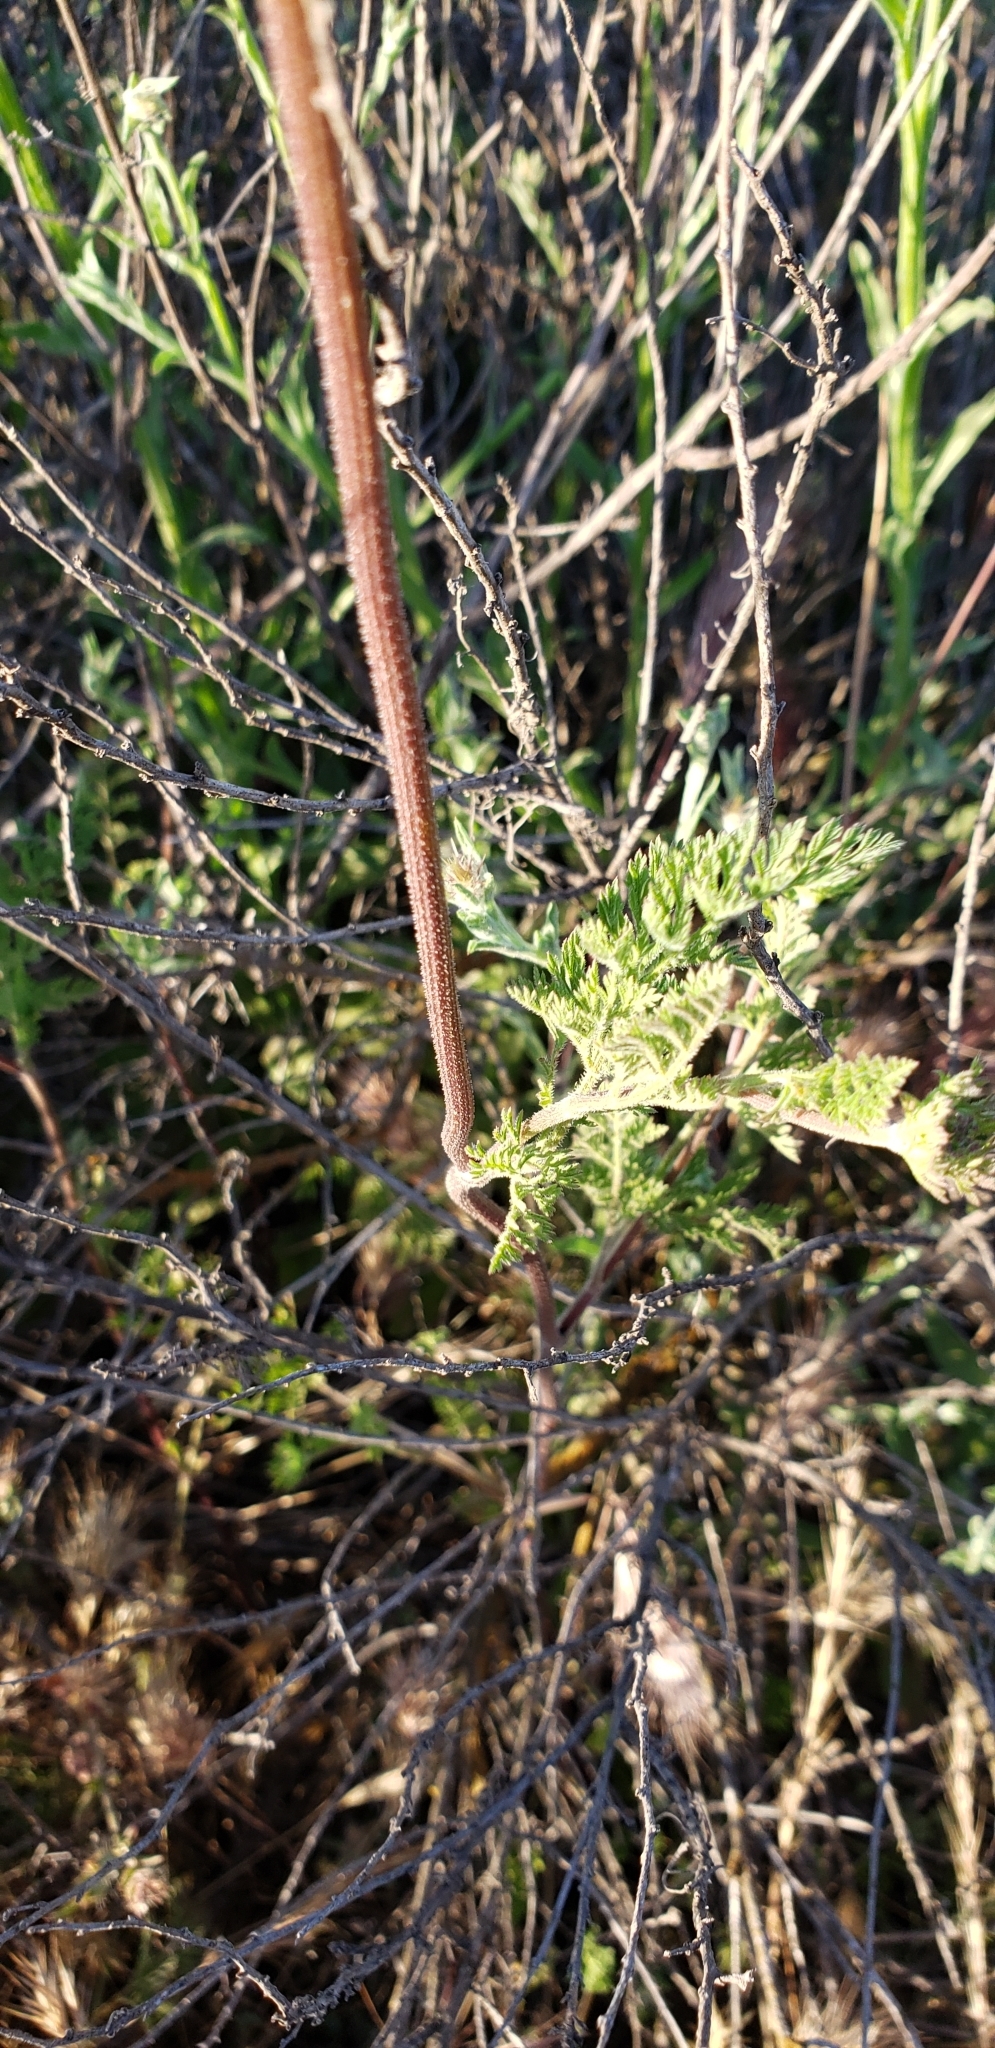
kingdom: Plantae
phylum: Tracheophyta
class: Magnoliopsida
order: Apiales
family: Apiaceae
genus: Daucus
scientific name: Daucus pusillus
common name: Southwest wild carrot
